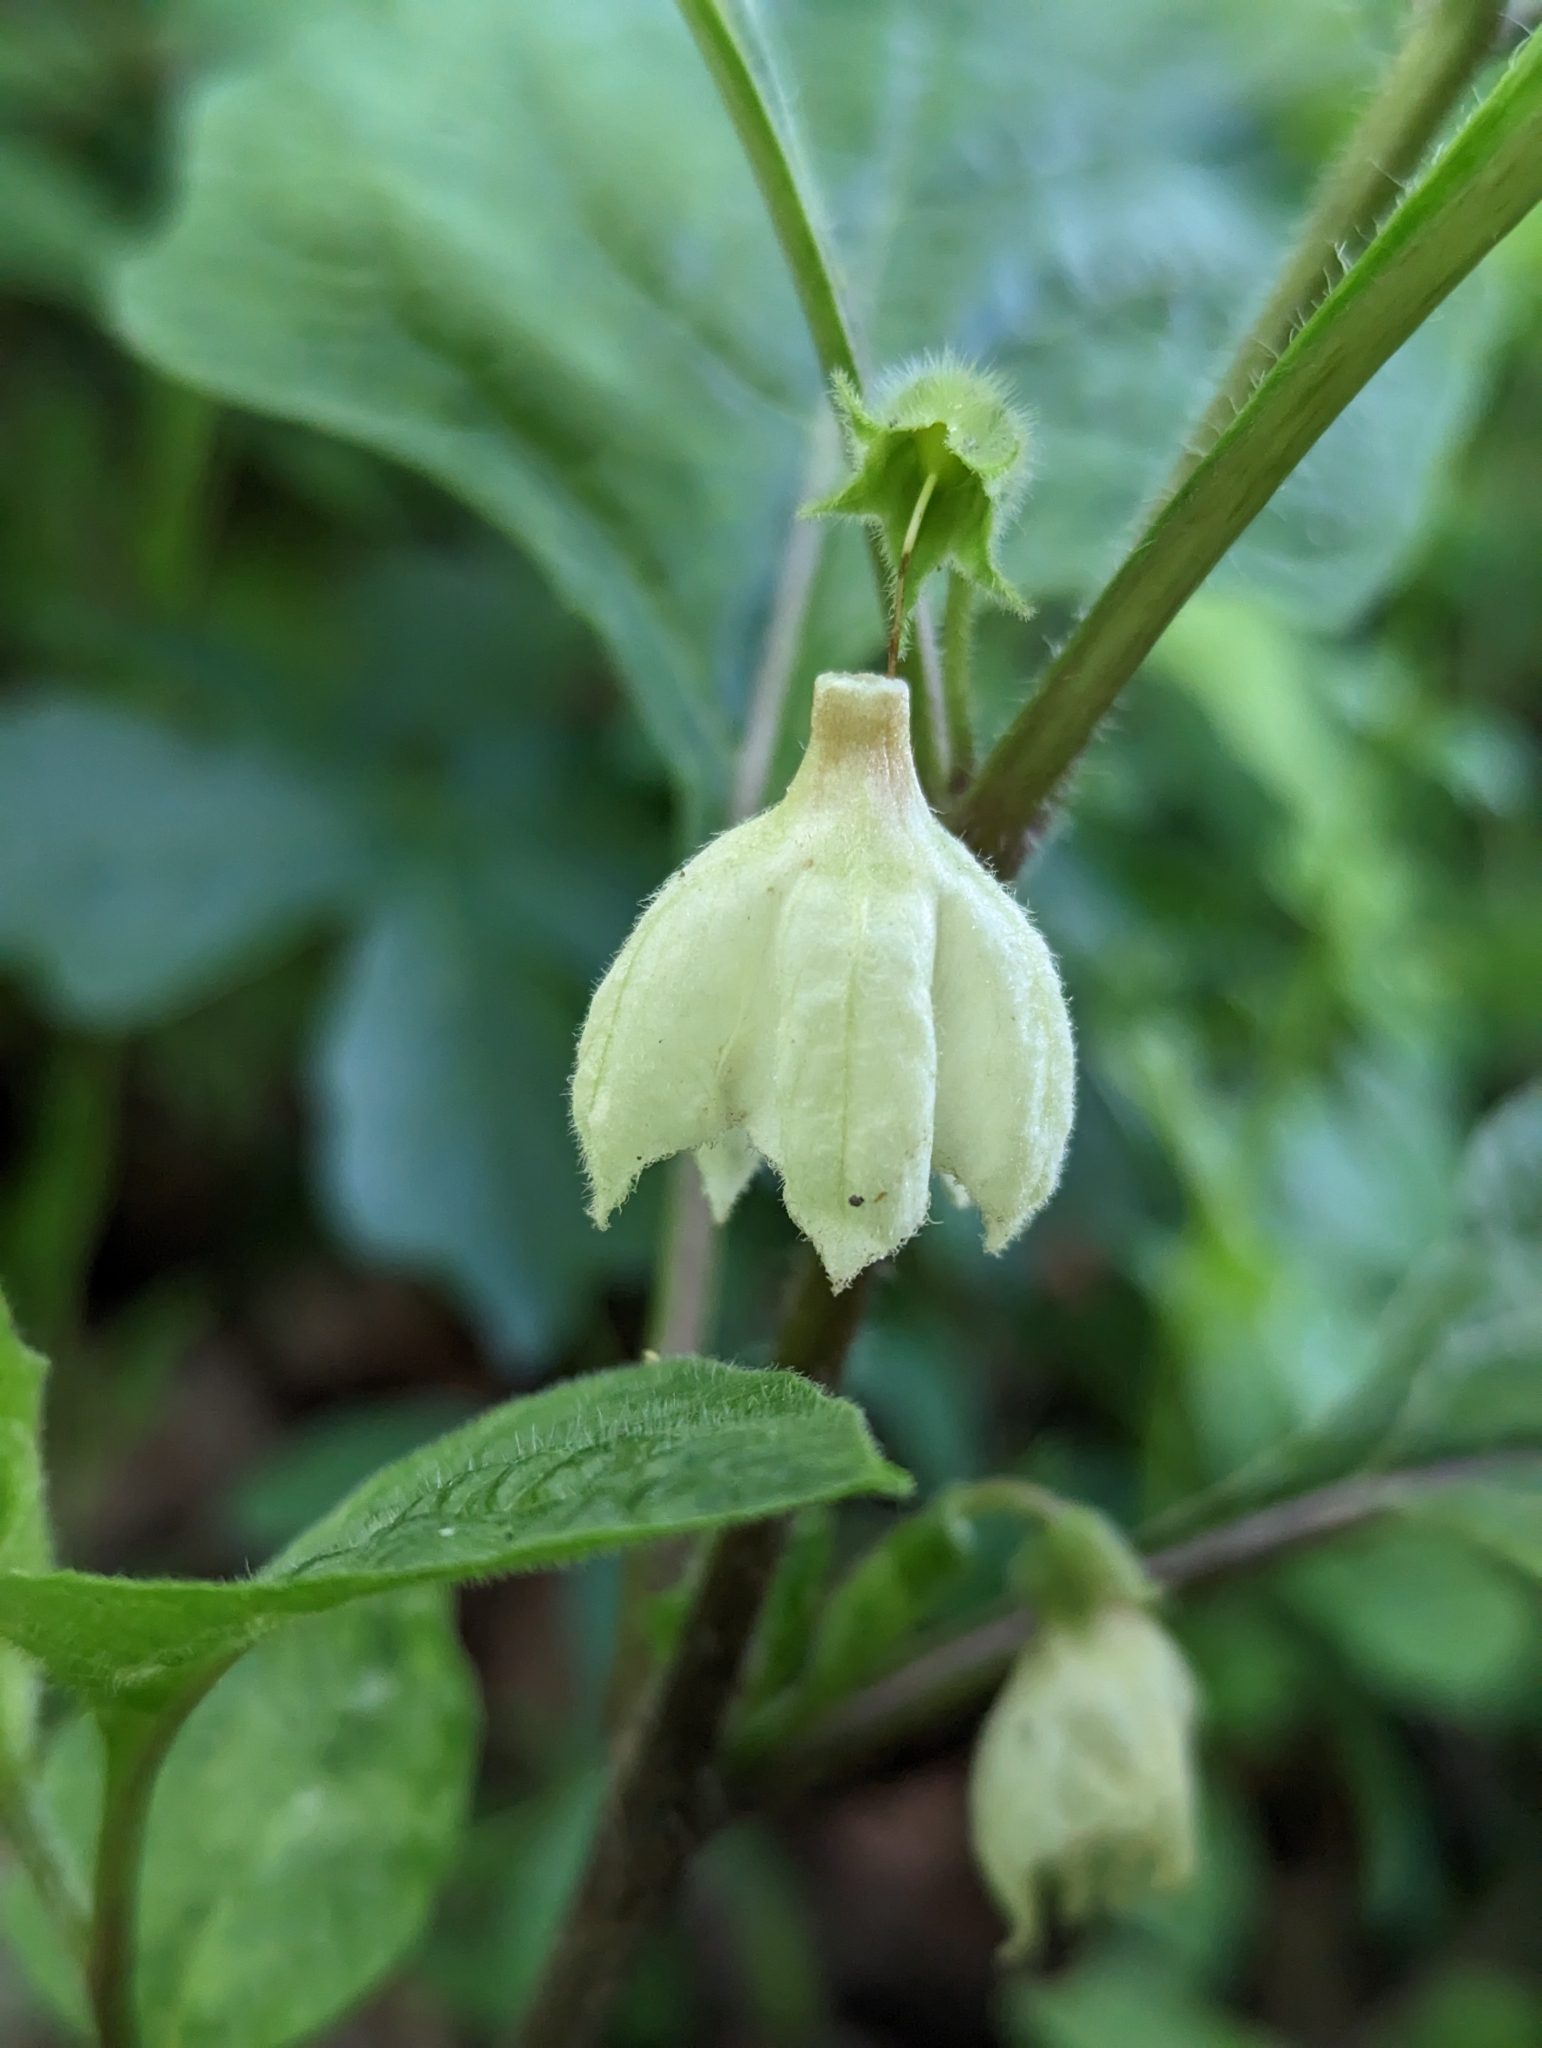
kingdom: Plantae
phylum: Tracheophyta
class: Magnoliopsida
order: Solanales
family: Solanaceae
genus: Alkekengi
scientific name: Alkekengi officinarum
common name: Japanese-lantern
